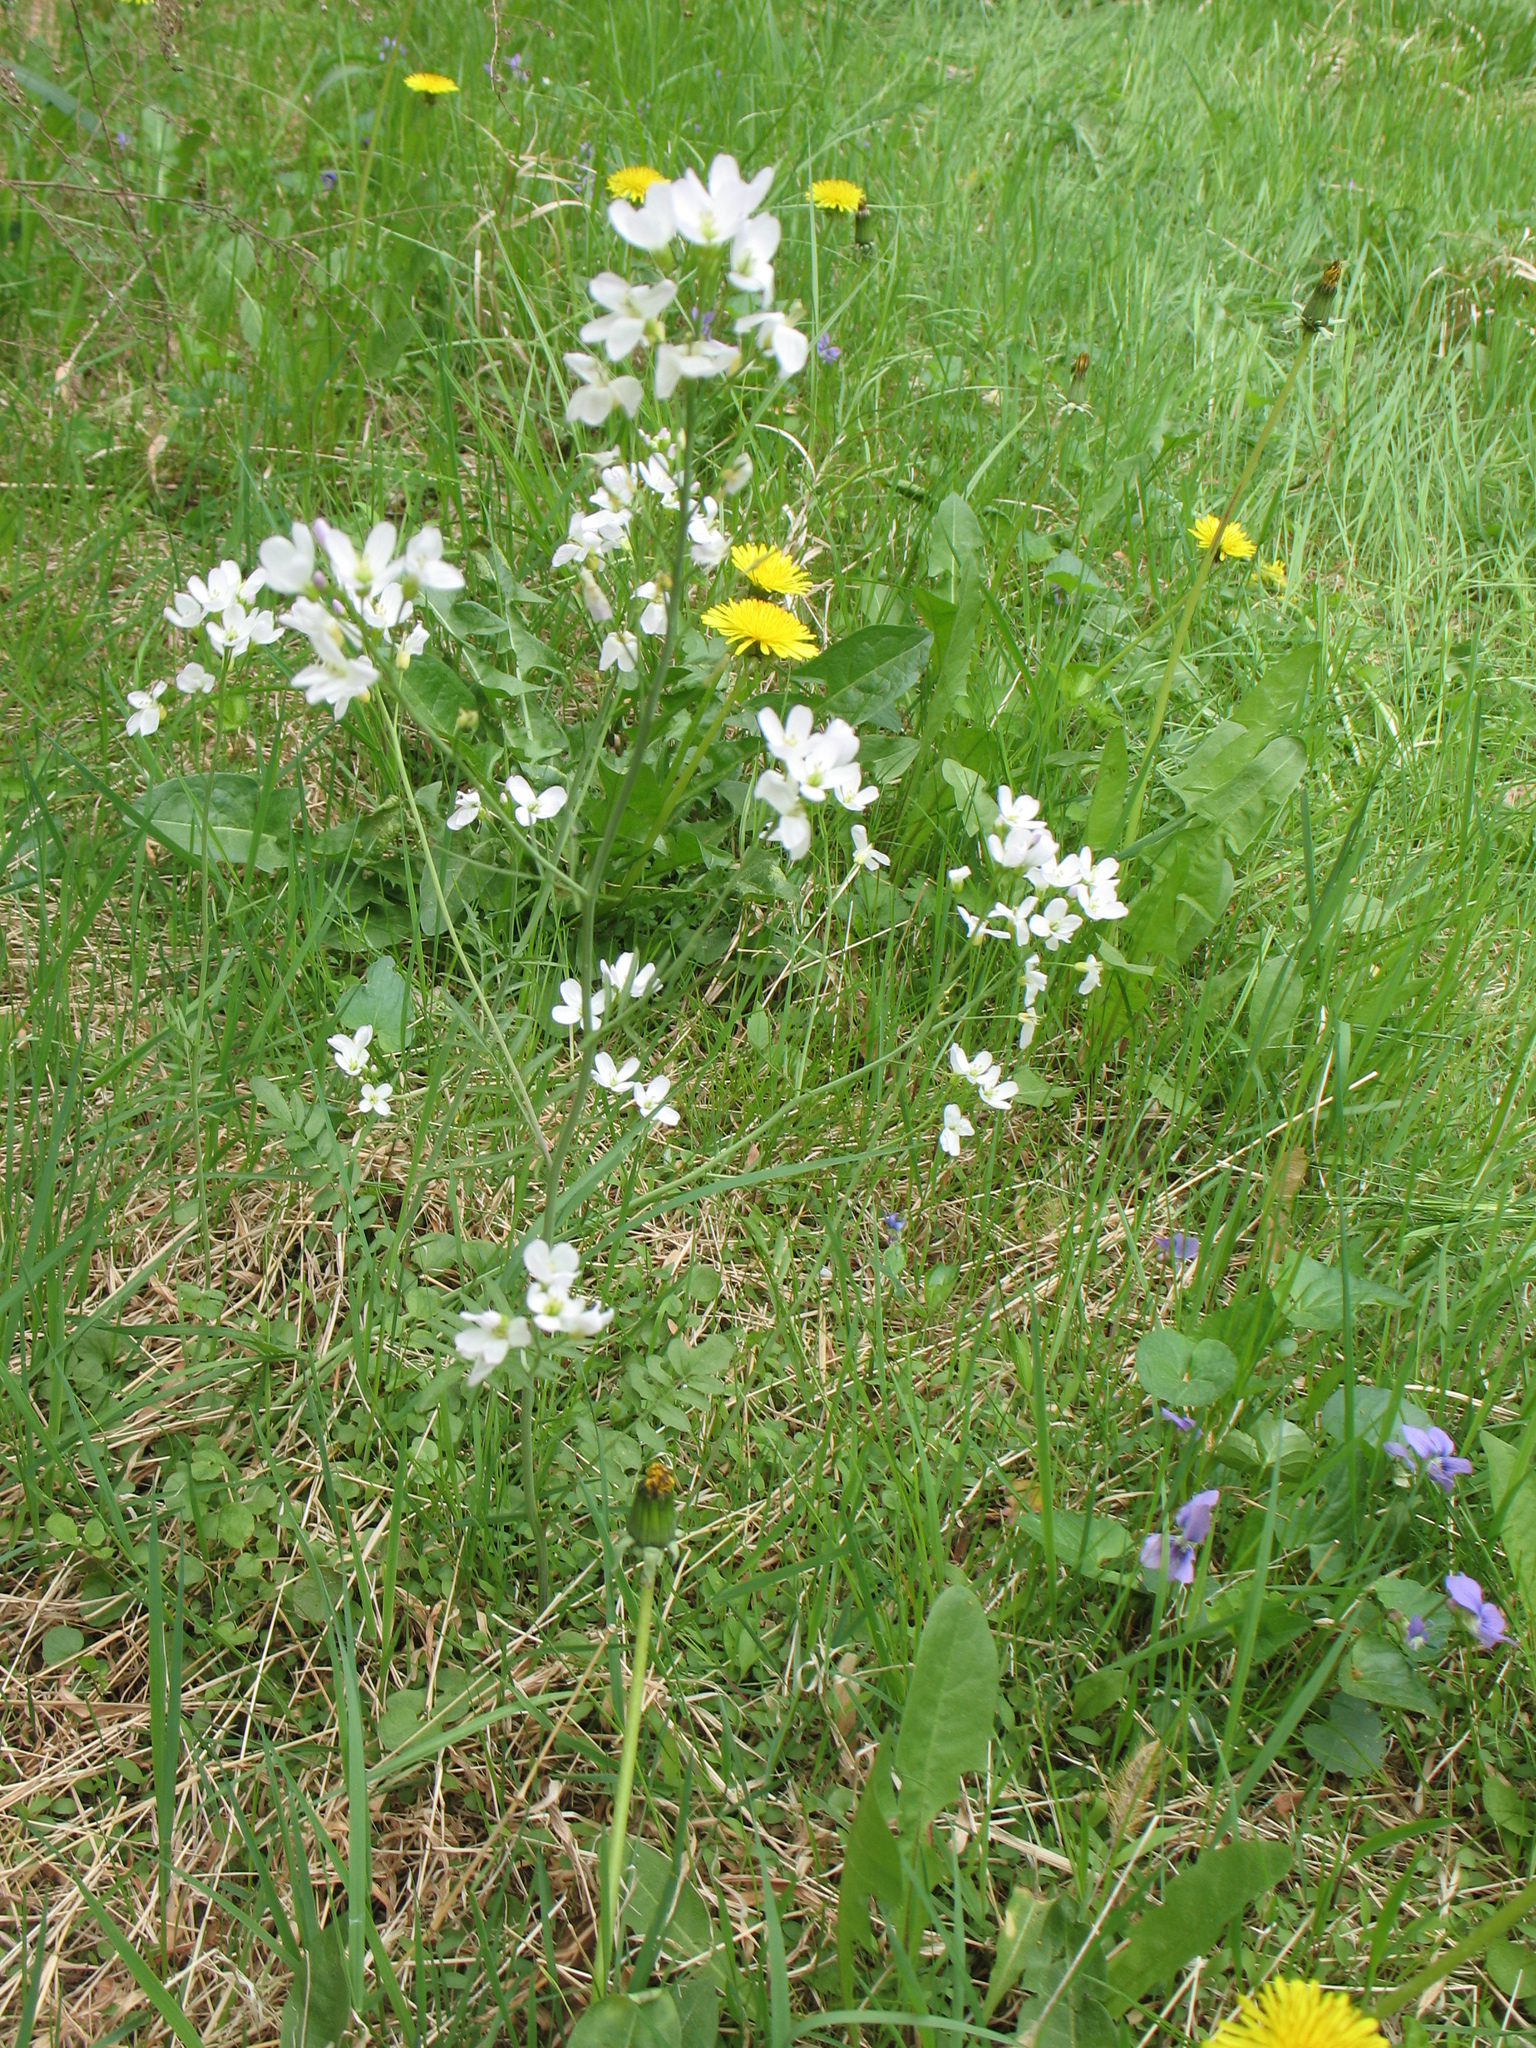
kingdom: Plantae
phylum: Tracheophyta
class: Magnoliopsida
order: Brassicales
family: Brassicaceae
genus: Cardamine
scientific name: Cardamine pratensis
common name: Cuckoo flower
